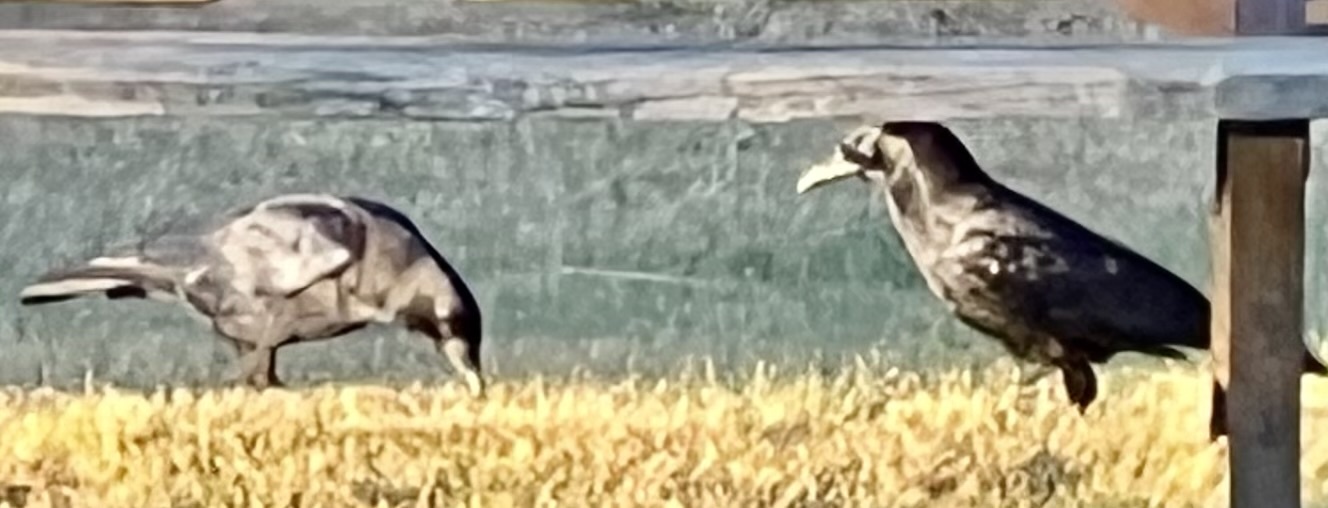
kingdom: Animalia
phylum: Chordata
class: Aves
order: Passeriformes
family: Corvidae
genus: Corvus
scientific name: Corvus brachyrhynchos
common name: American crow
